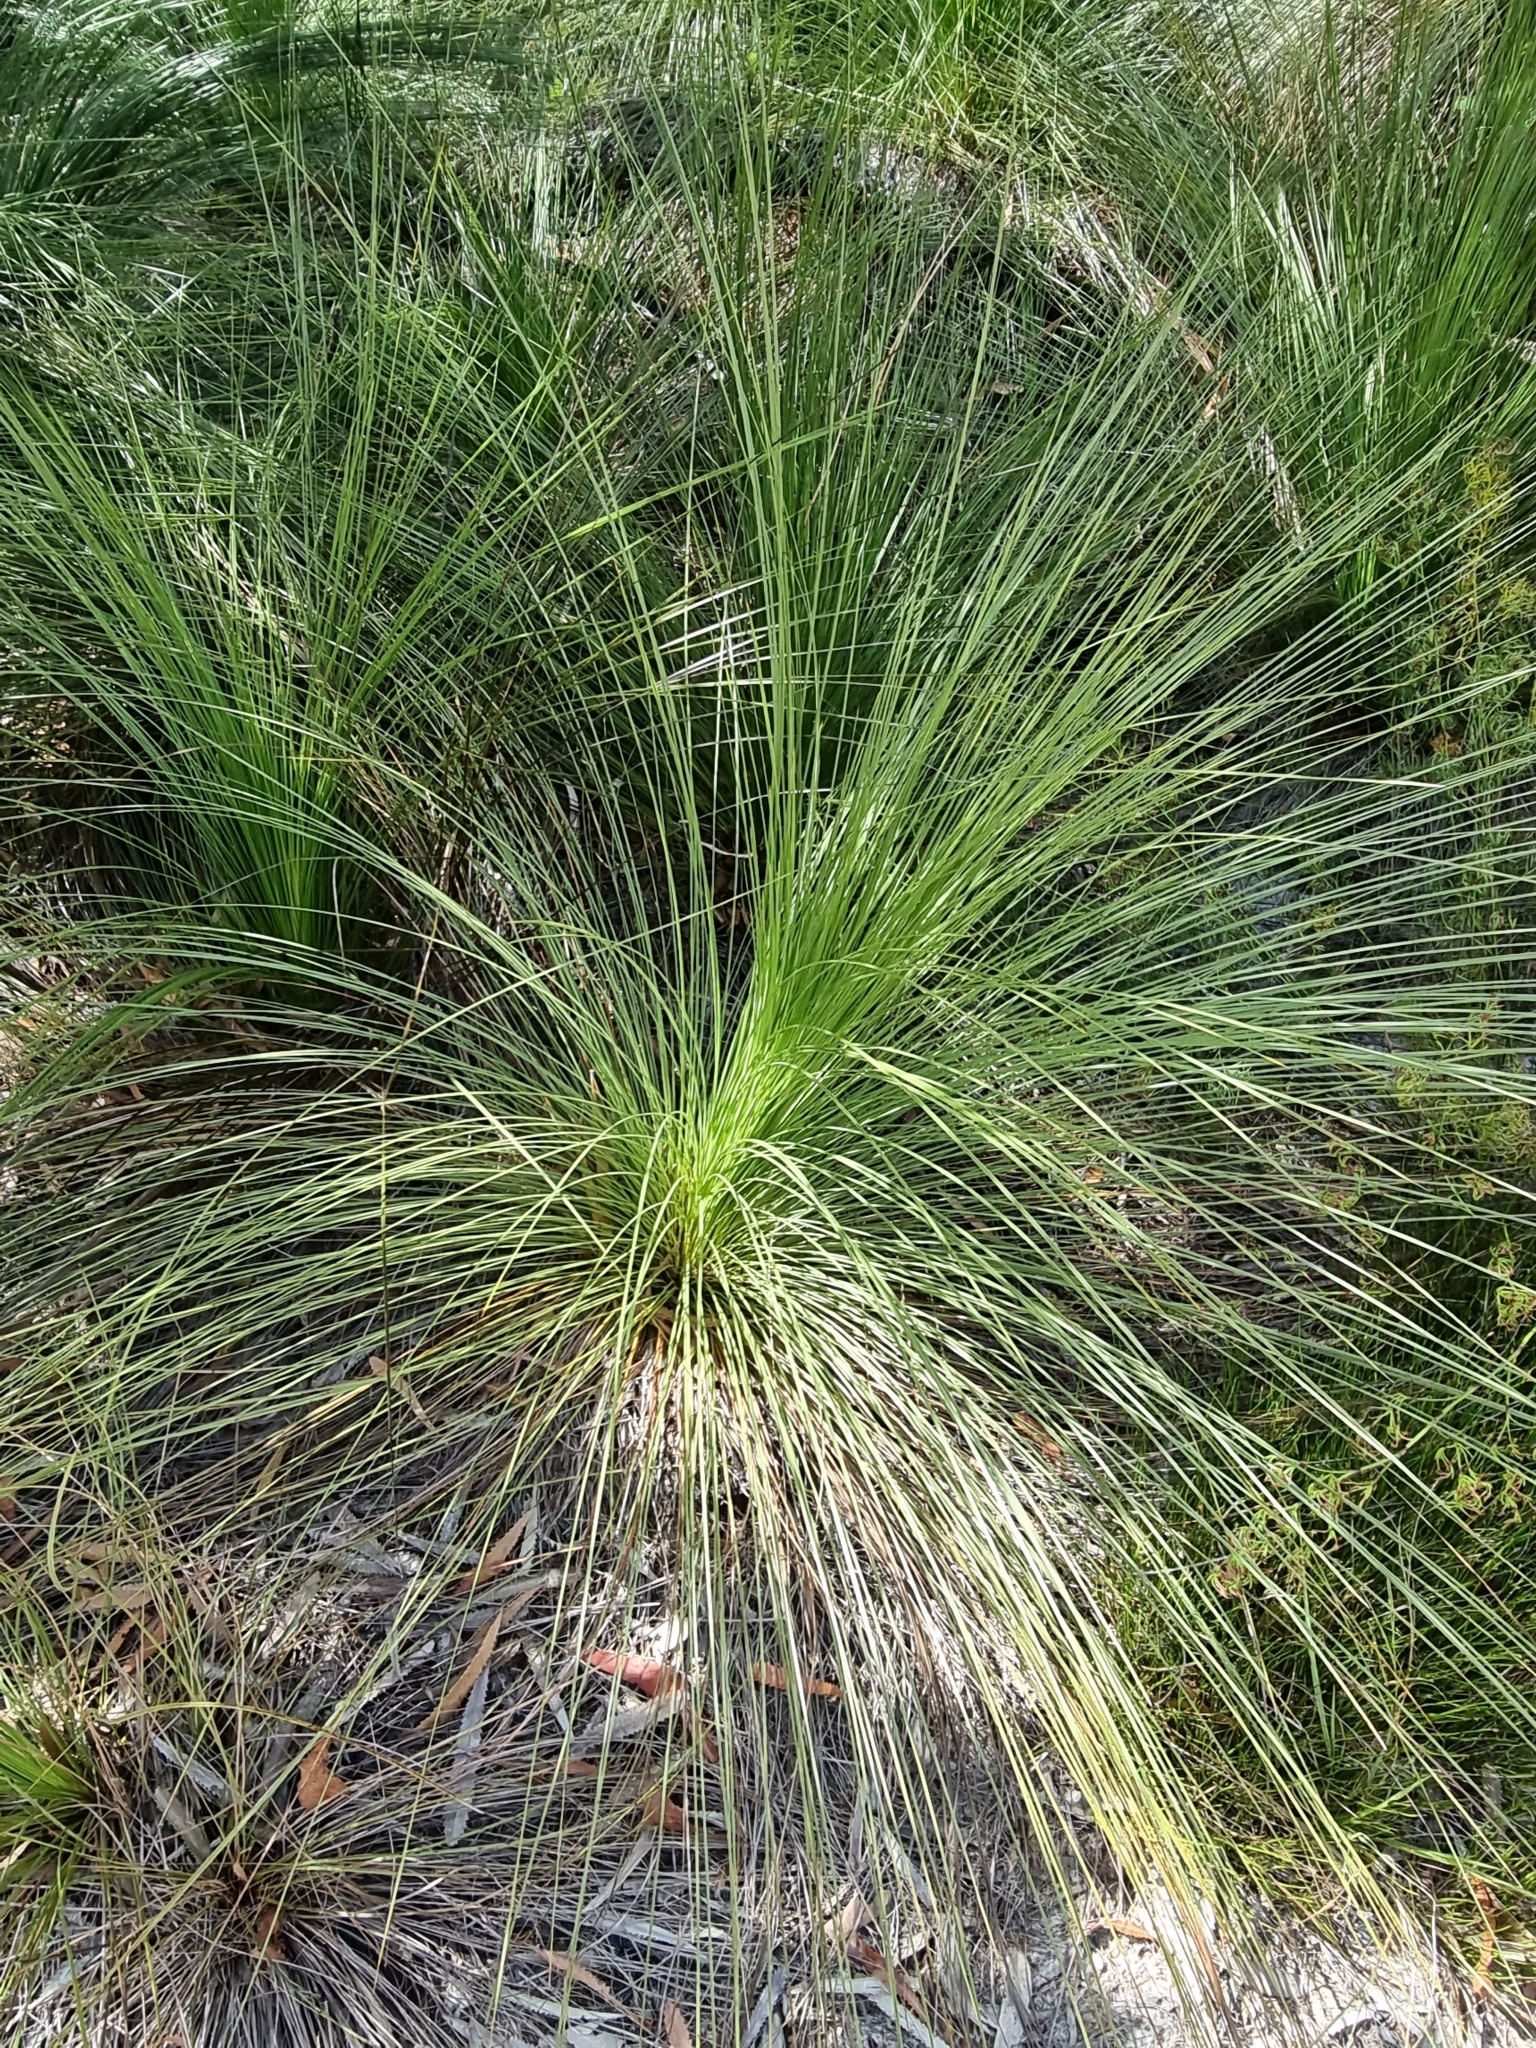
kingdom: Plantae
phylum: Tracheophyta
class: Liliopsida
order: Asparagales
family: Asphodelaceae
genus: Xanthorrhoea
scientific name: Xanthorrhoea johnsonii
